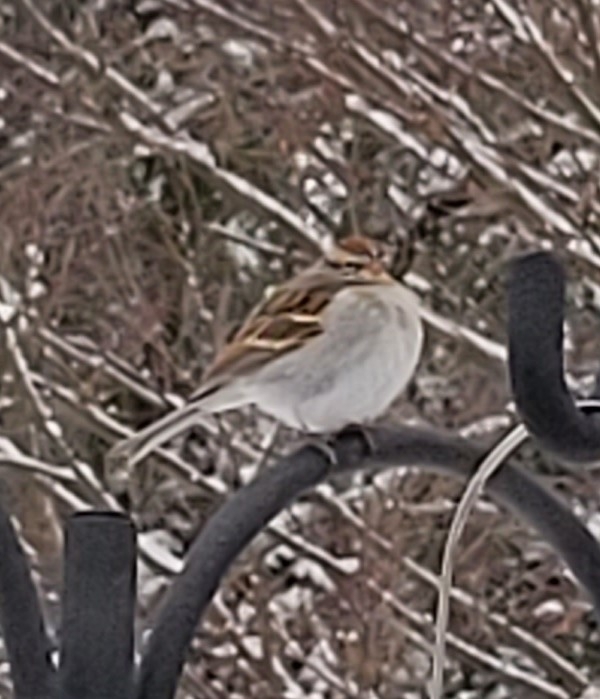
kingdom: Animalia
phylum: Chordata
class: Aves
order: Passeriformes
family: Passerellidae
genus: Spizella
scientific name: Spizella passerina
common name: Chipping sparrow
